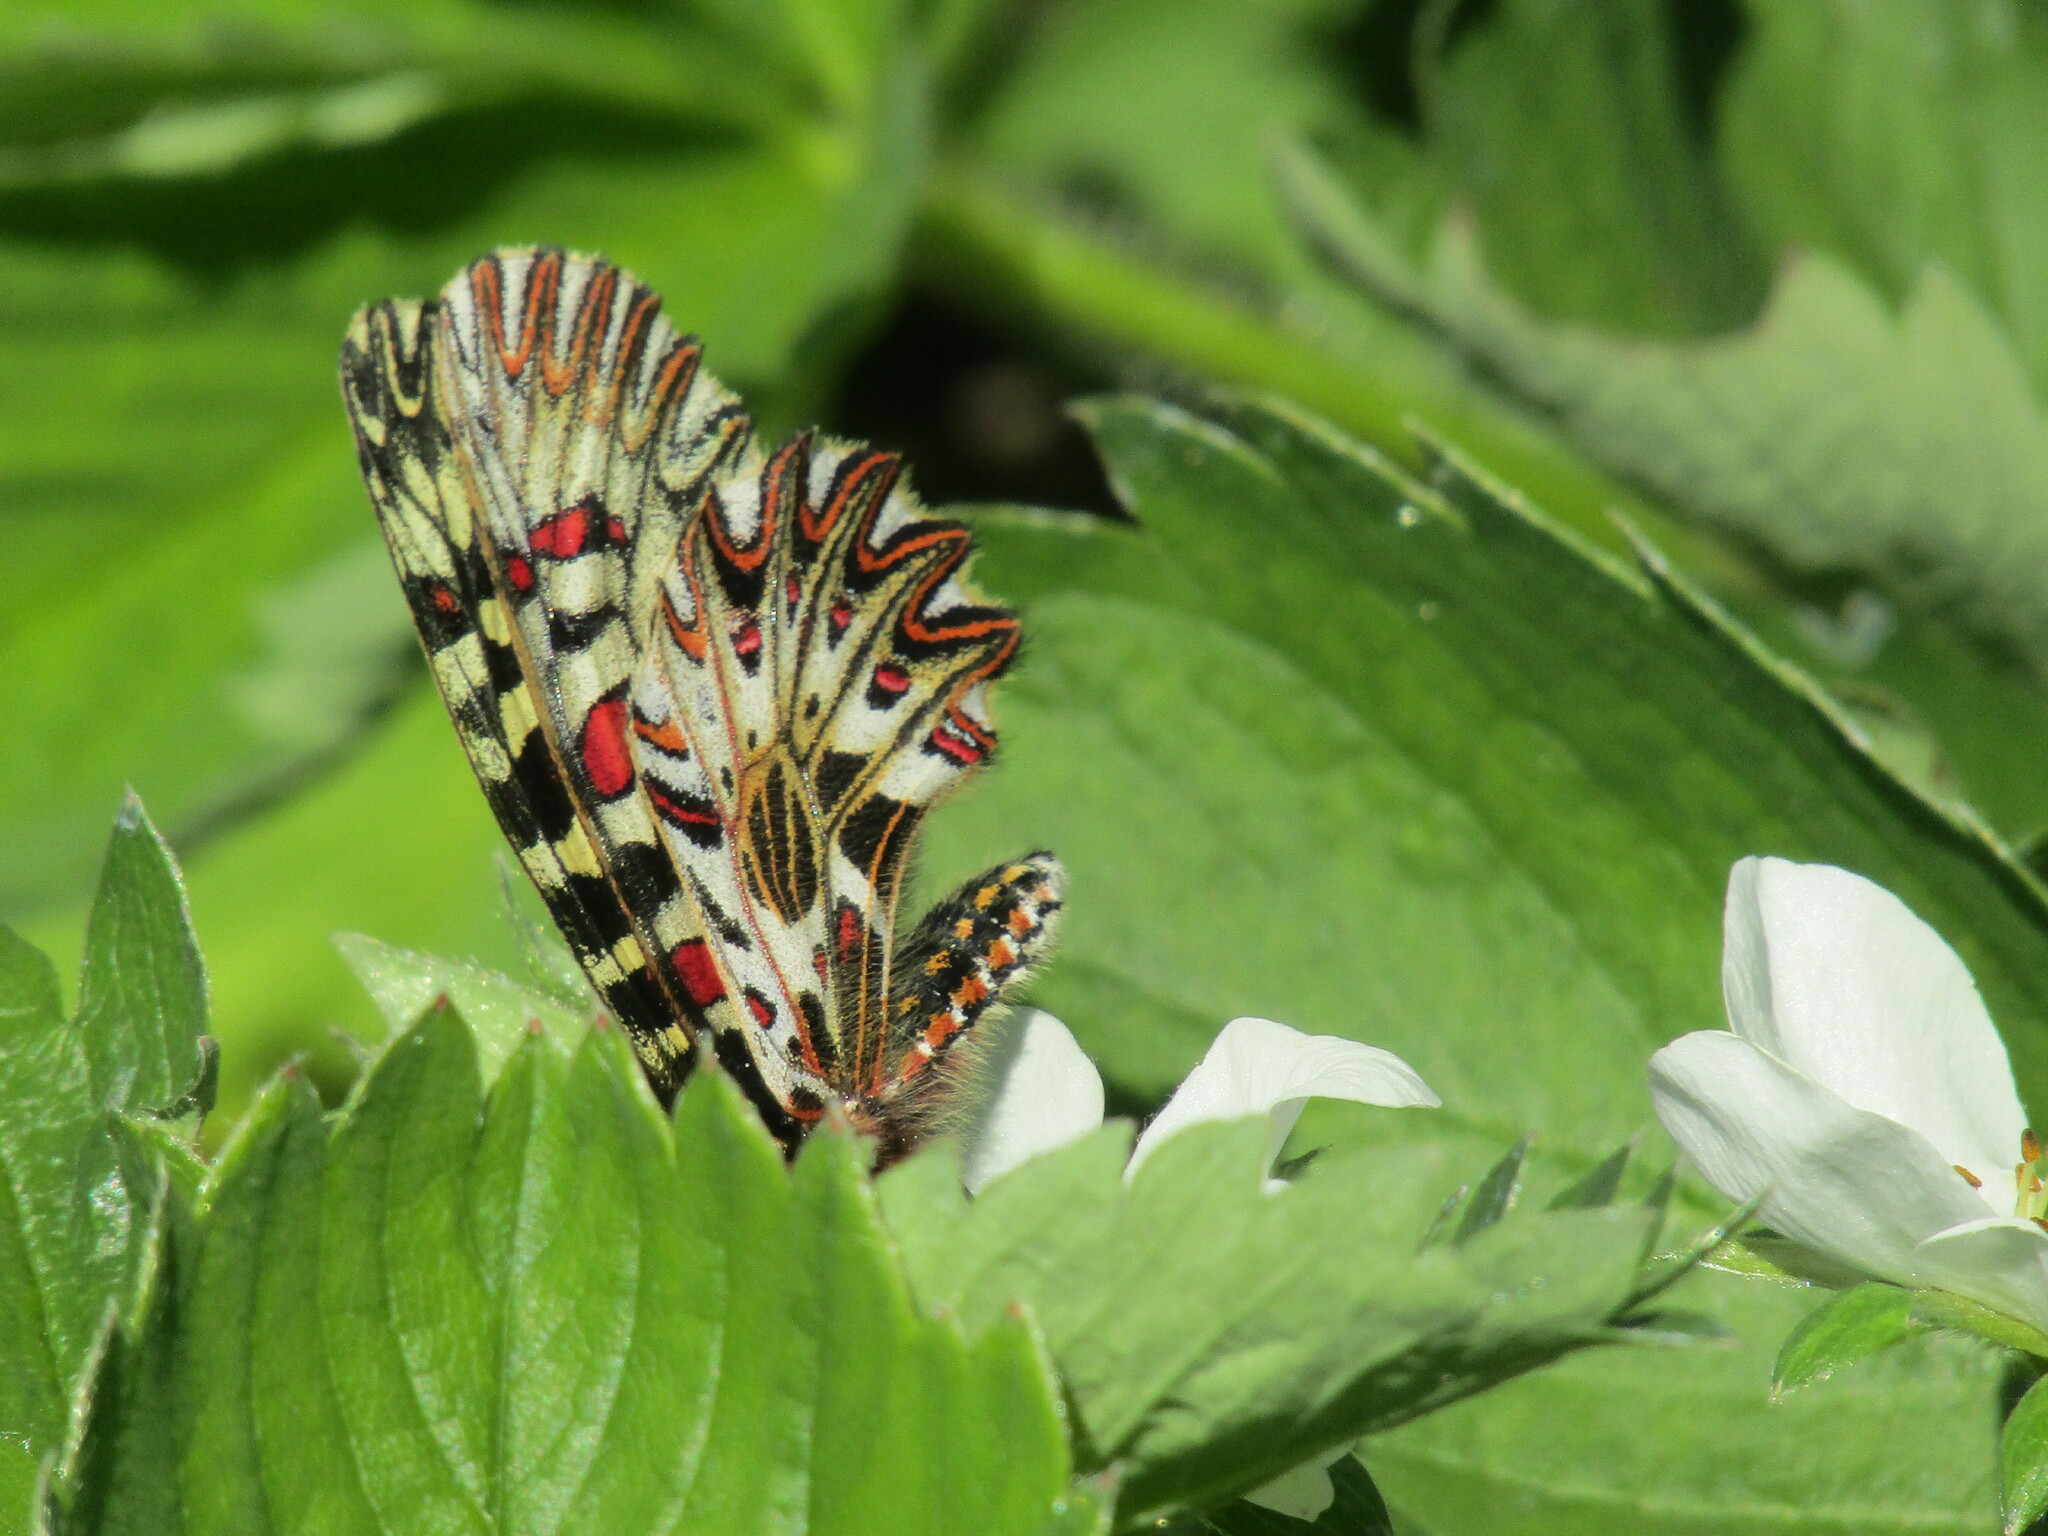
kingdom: Animalia
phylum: Arthropoda
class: Insecta
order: Lepidoptera
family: Papilionidae
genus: Zerynthia
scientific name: Zerynthia polyxena
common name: Southern festoon
